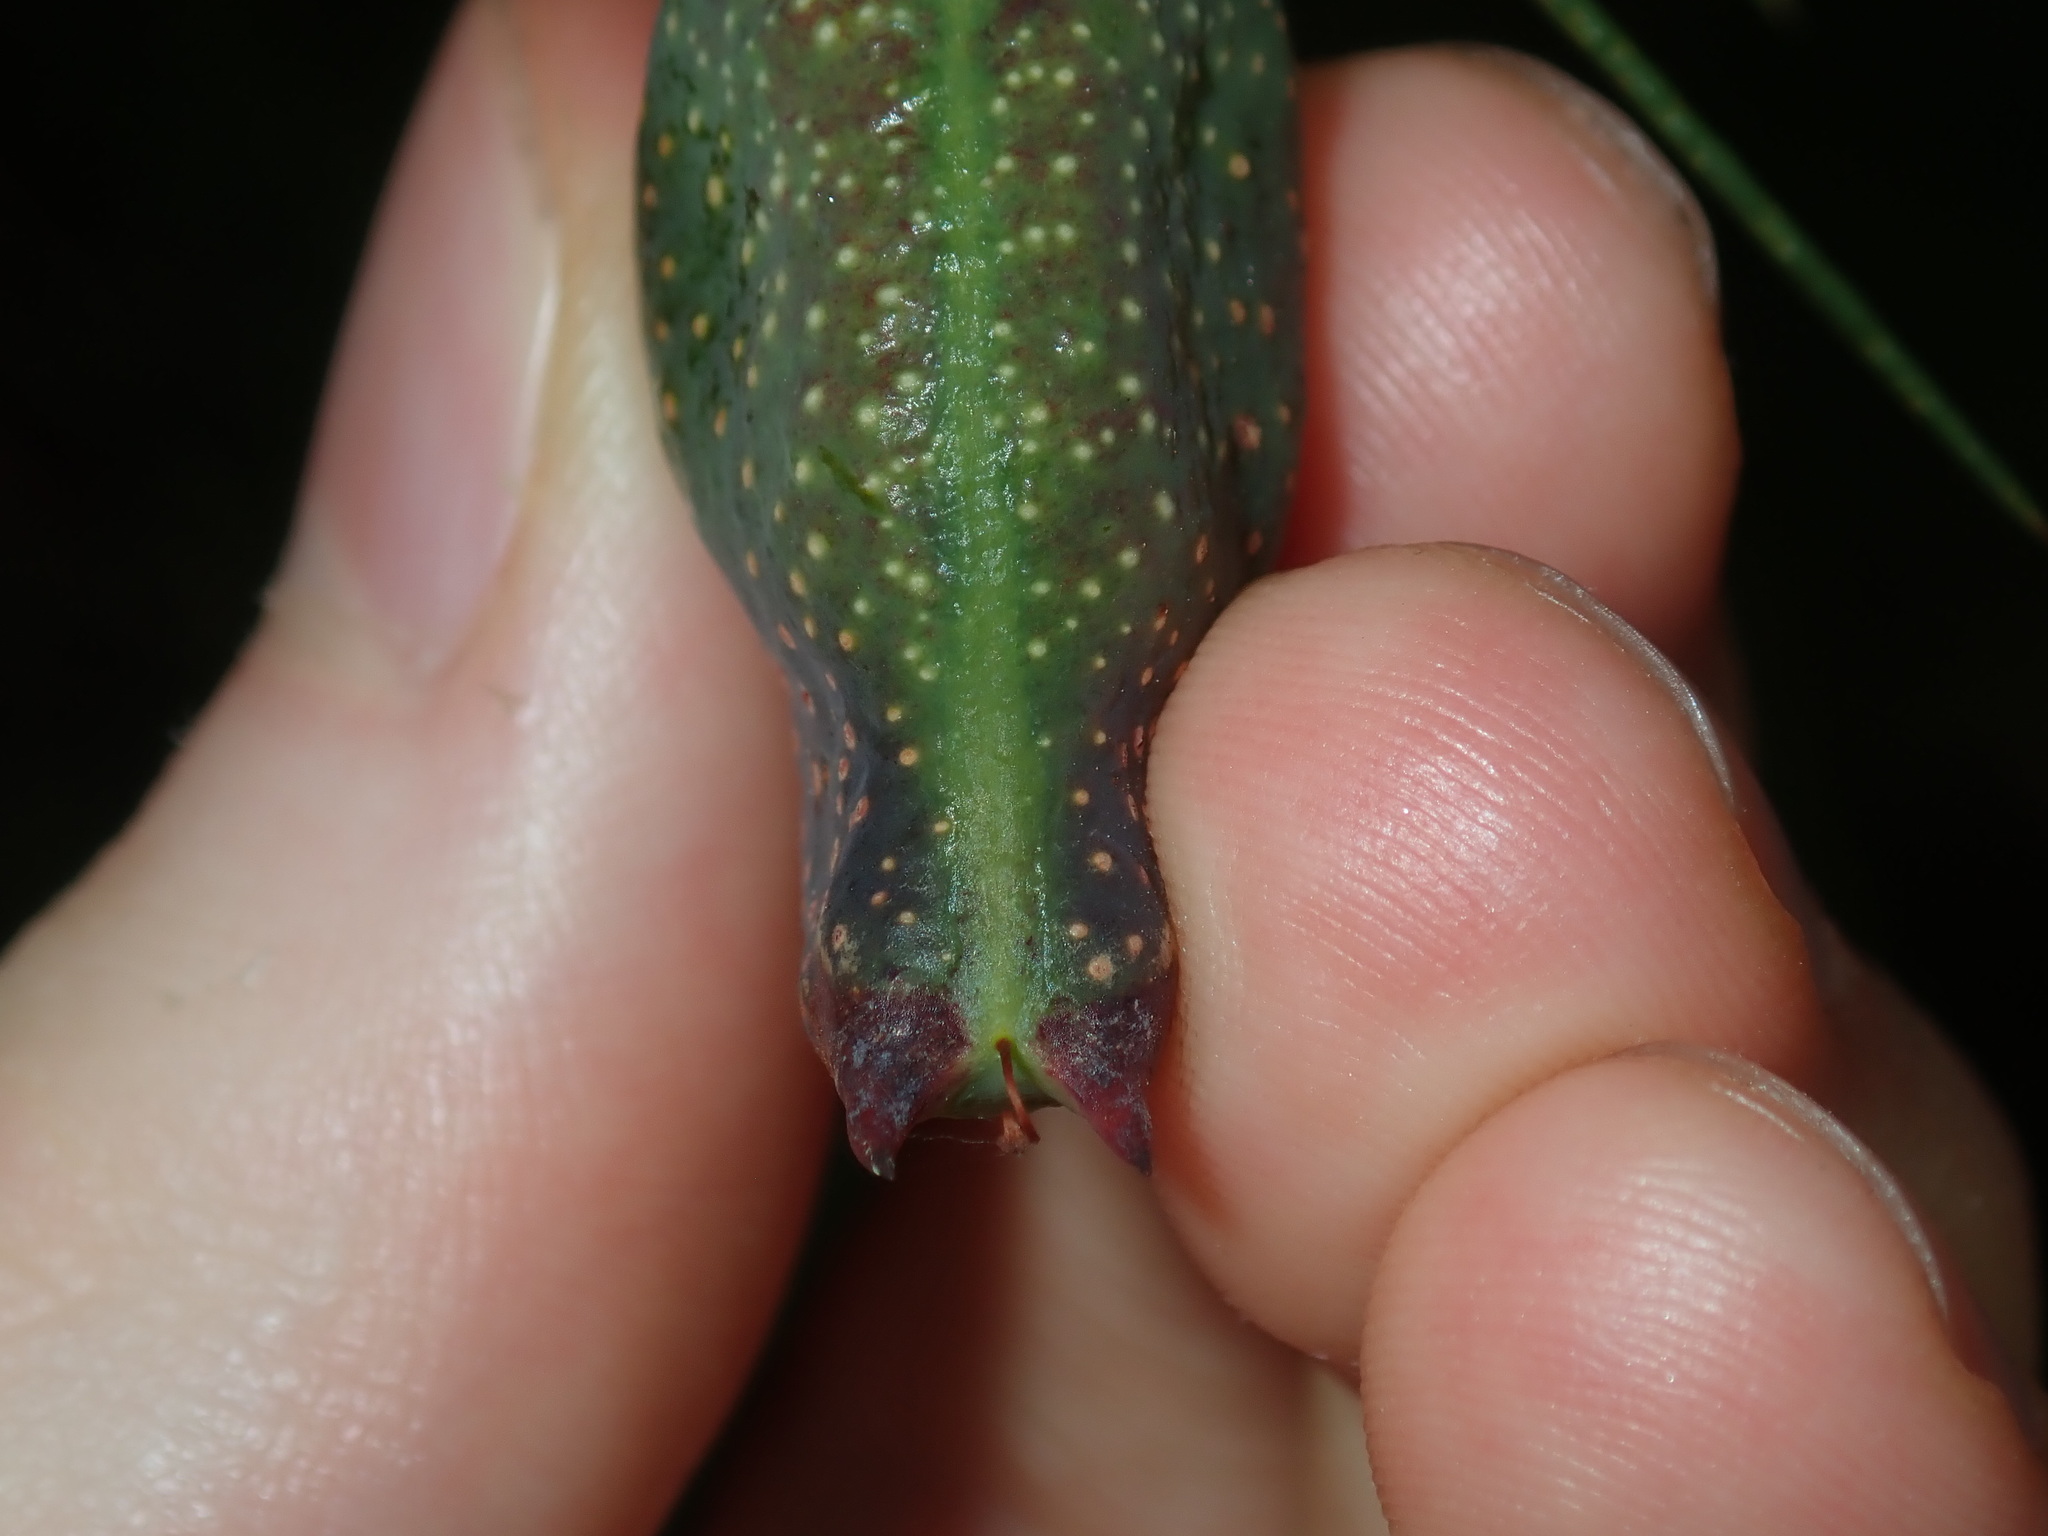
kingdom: Plantae
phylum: Tracheophyta
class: Magnoliopsida
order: Proteales
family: Proteaceae
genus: Hakea
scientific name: Hakea sericea
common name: Needle bush
